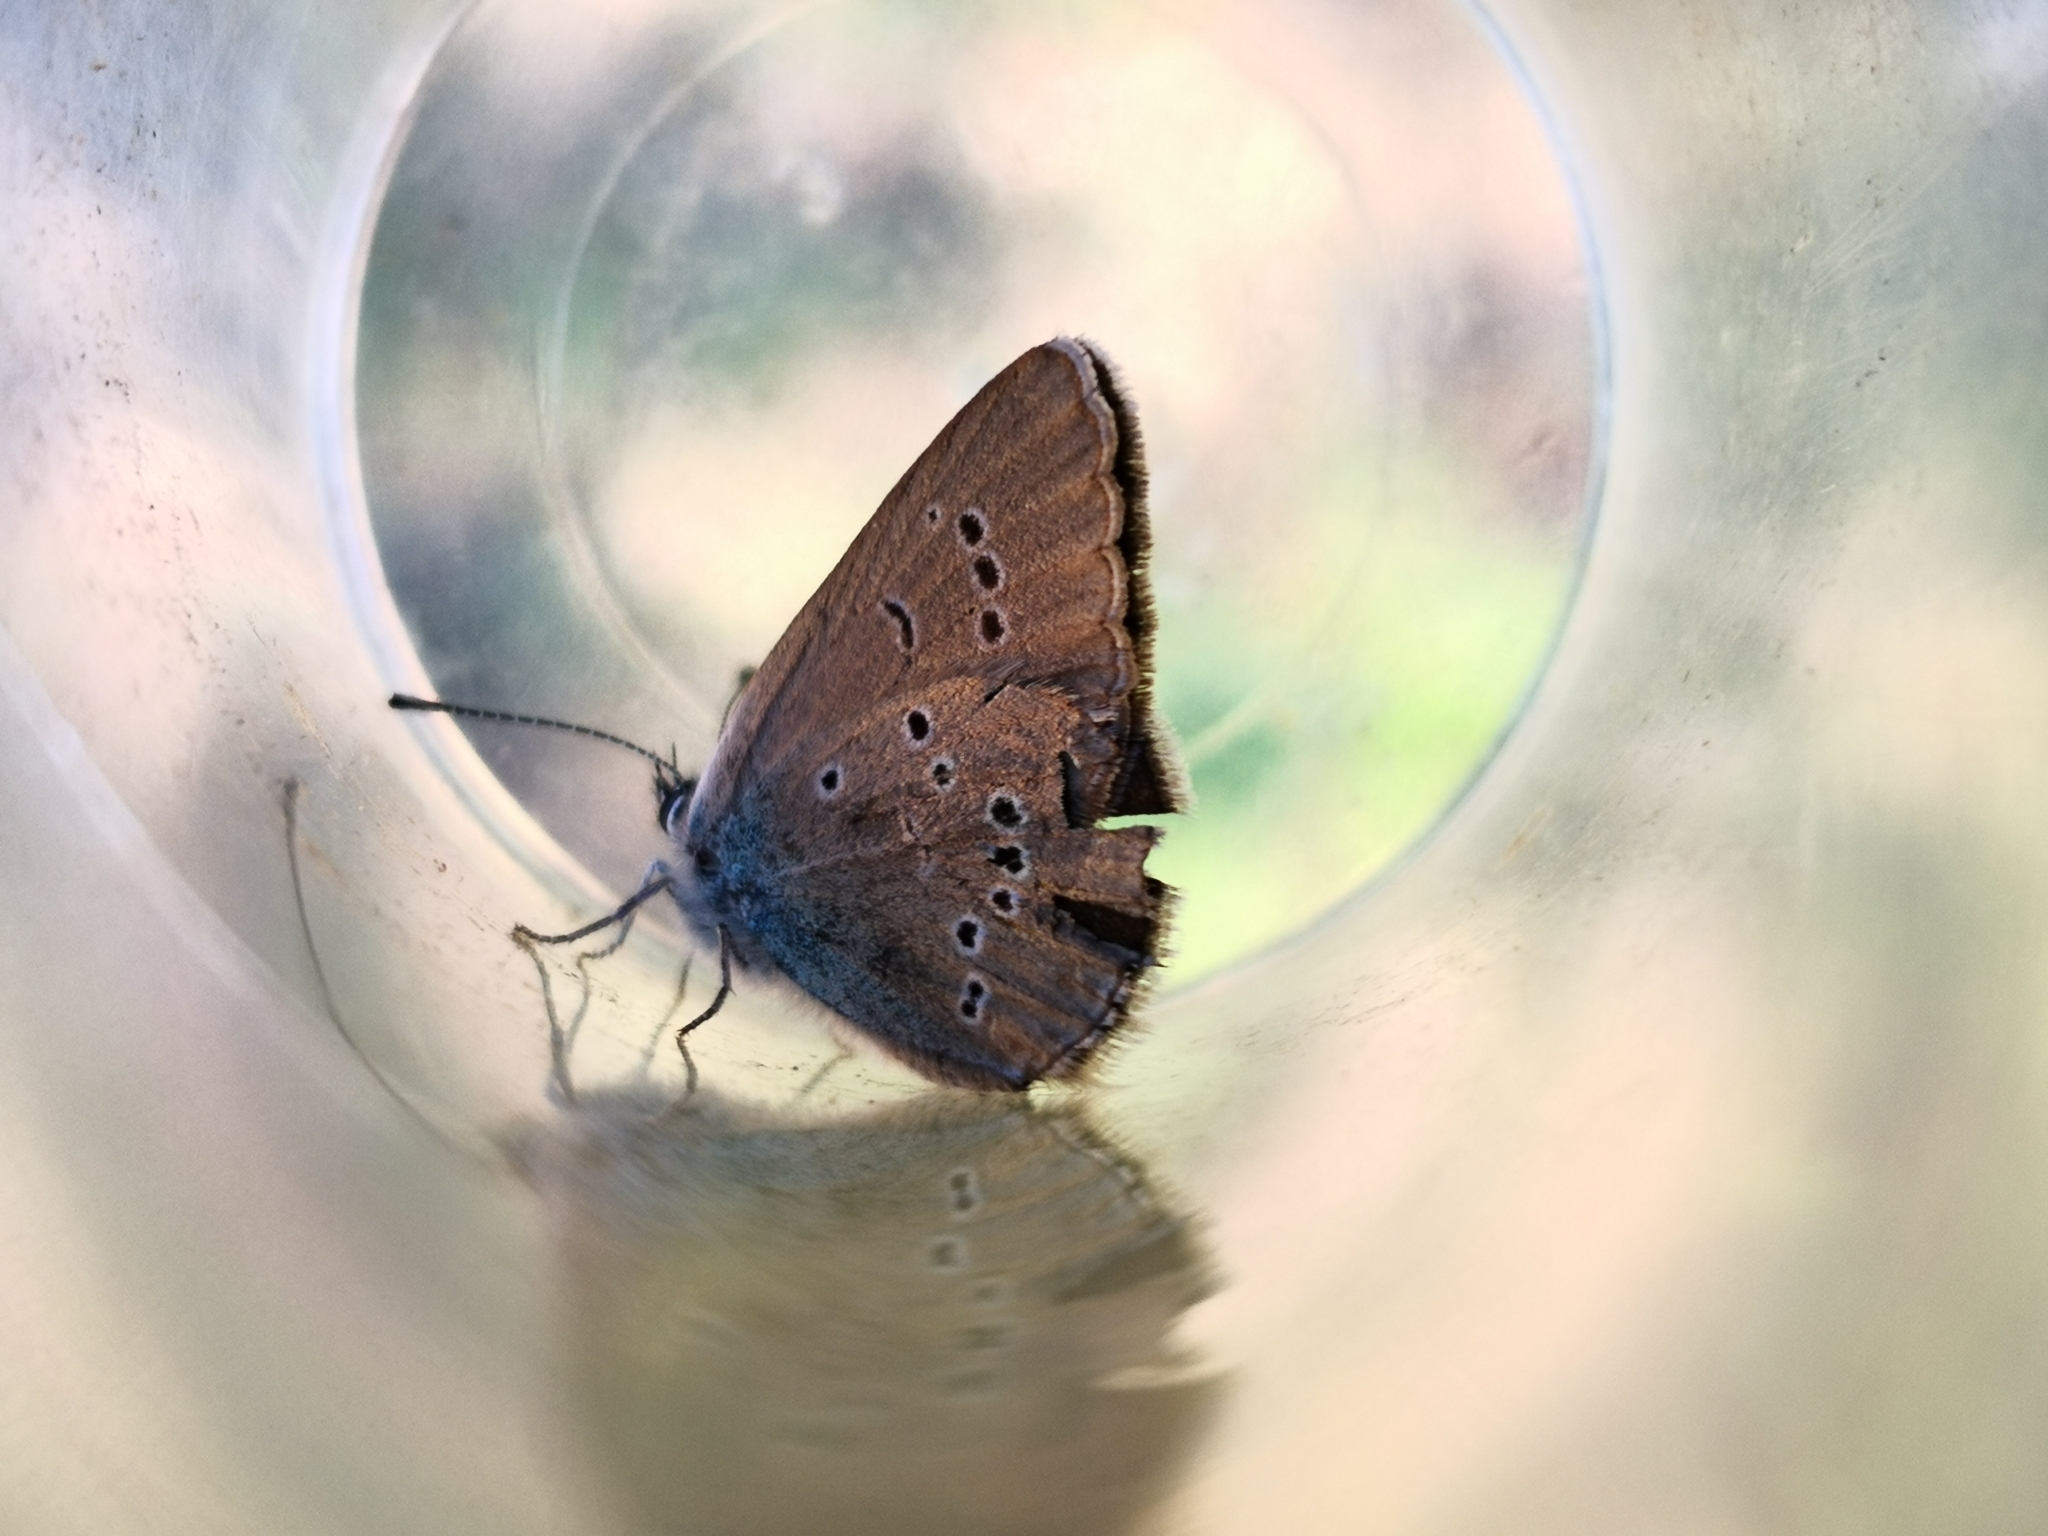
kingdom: Animalia
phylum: Arthropoda
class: Insecta
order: Lepidoptera
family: Lycaenidae
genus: Cyaniris
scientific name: Cyaniris semiargus
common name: Mazarine blue
